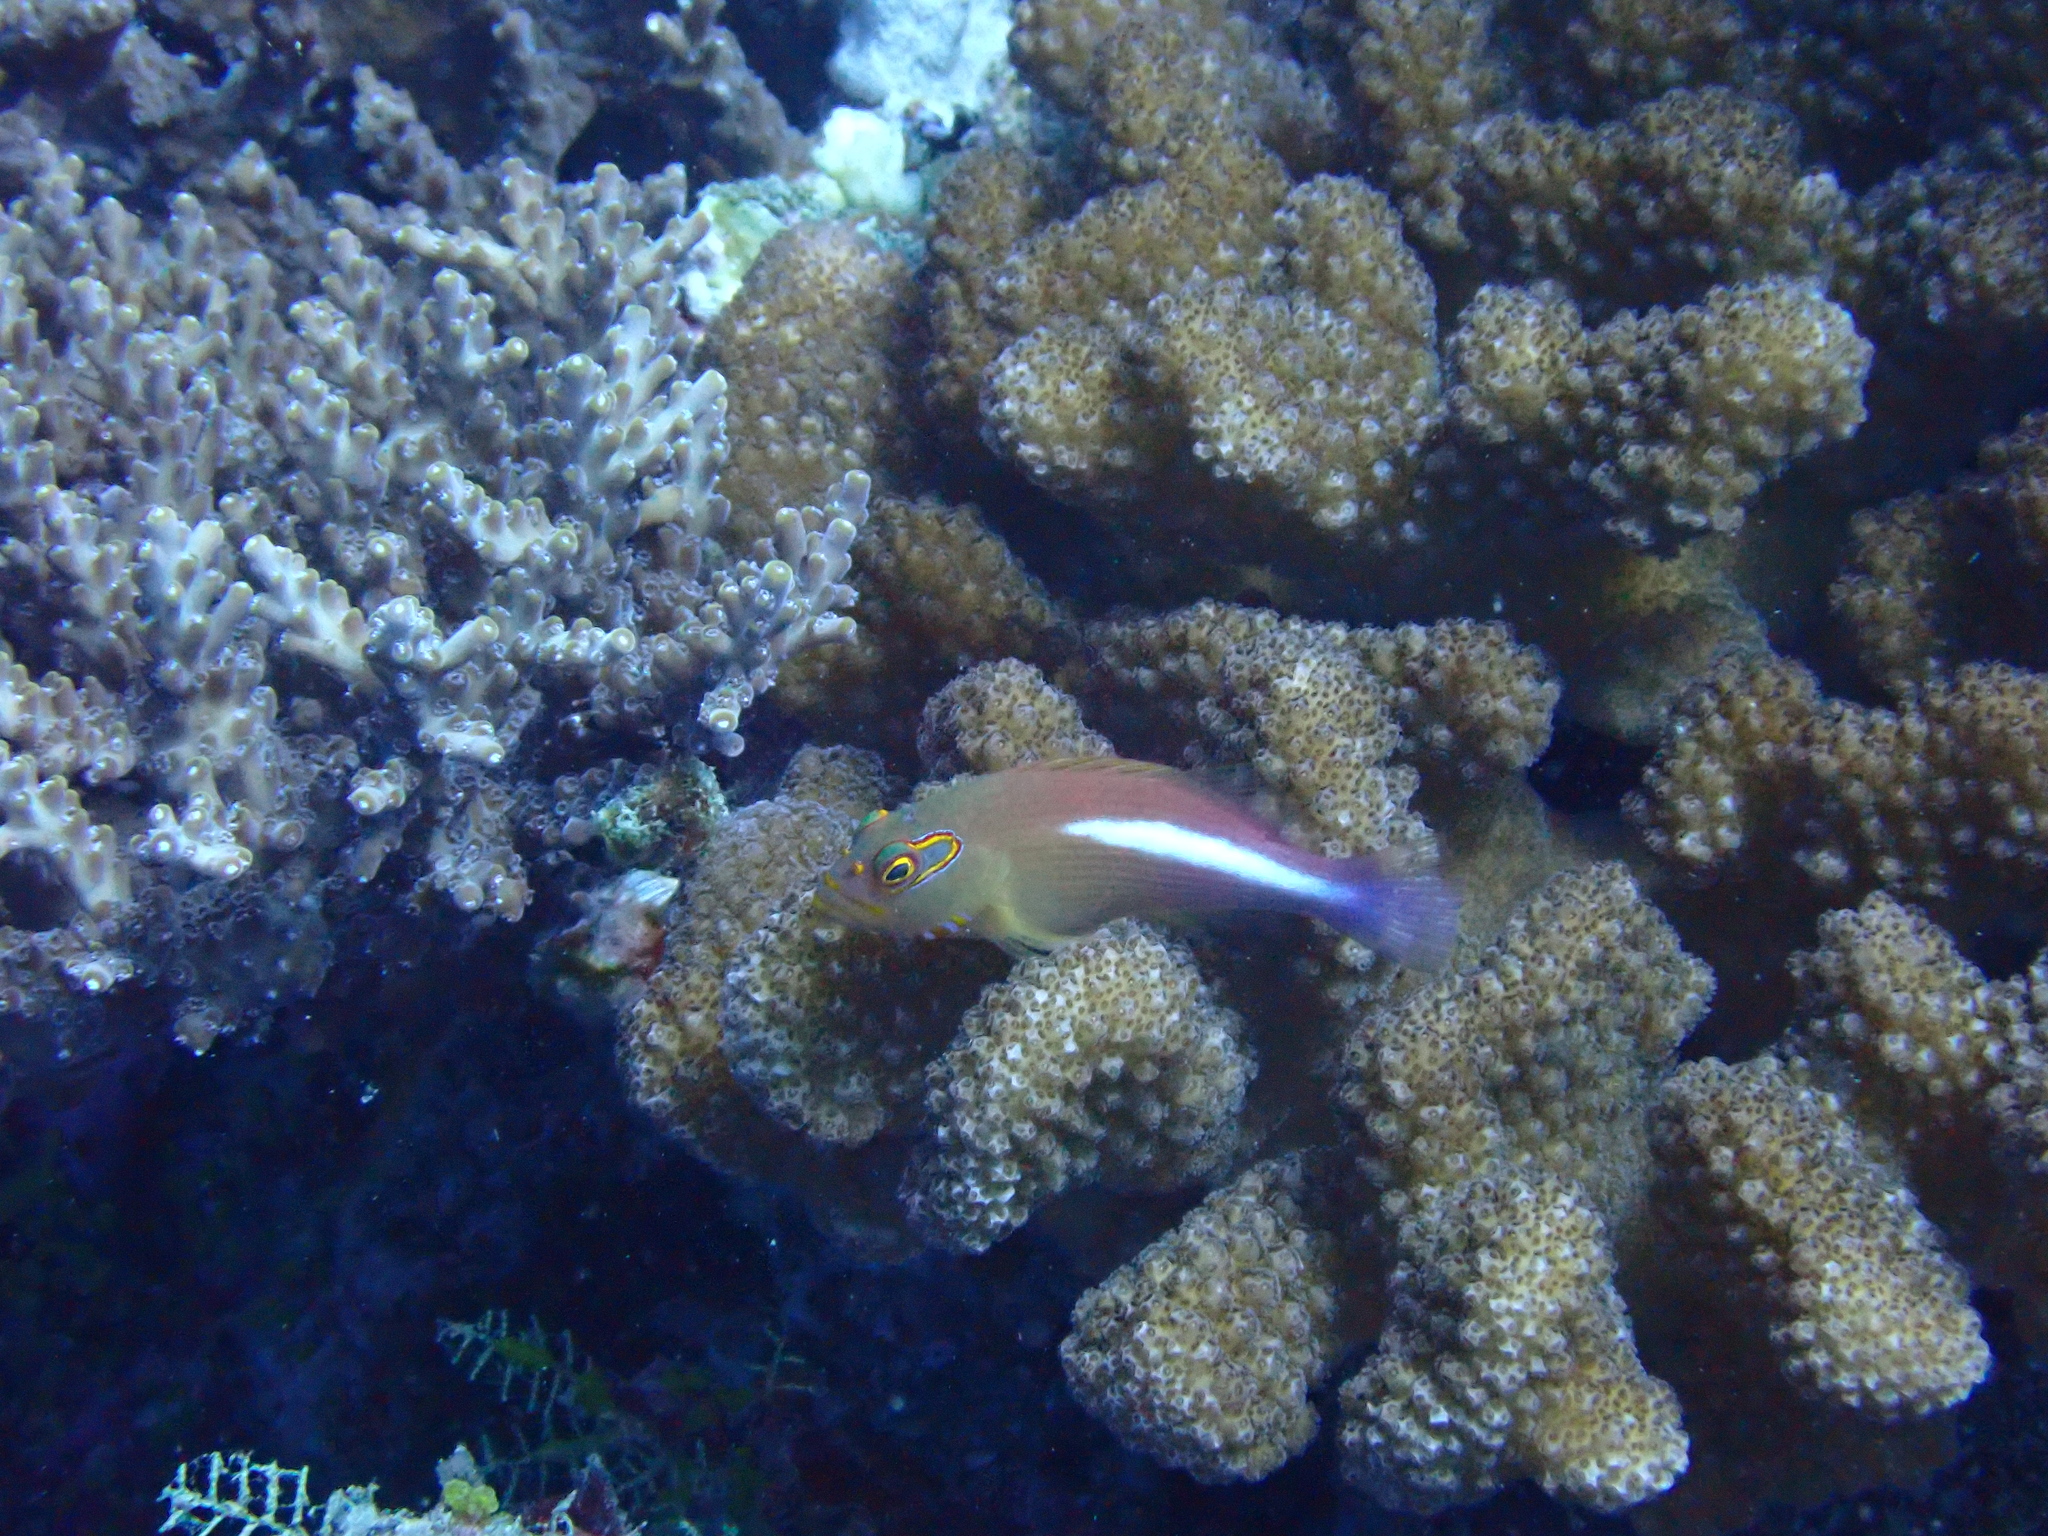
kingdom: Animalia
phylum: Chordata
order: Perciformes
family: Cirrhitidae
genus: Paracirrhites
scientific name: Paracirrhites arcatus
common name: Arc-eye hawkfish
